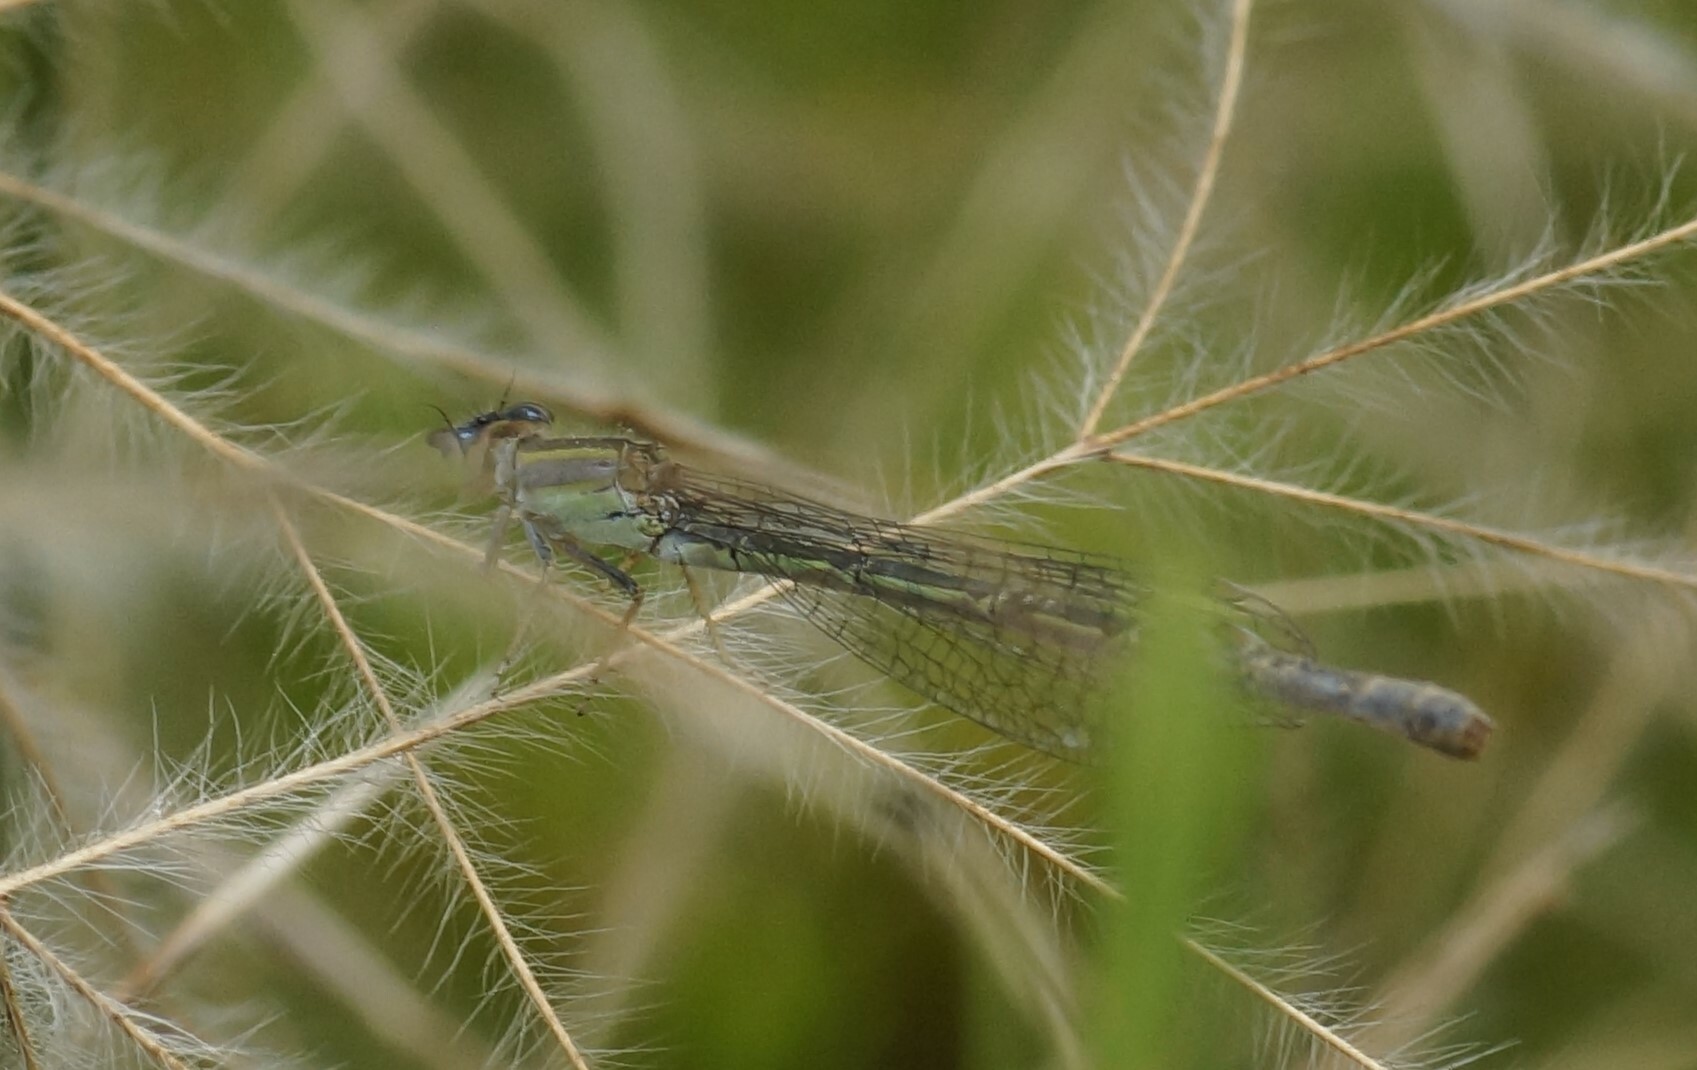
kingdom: Animalia
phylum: Arthropoda
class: Insecta
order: Odonata
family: Coenagrionidae
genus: Ischnura
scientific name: Ischnura aurora
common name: Gossamer damselfly
